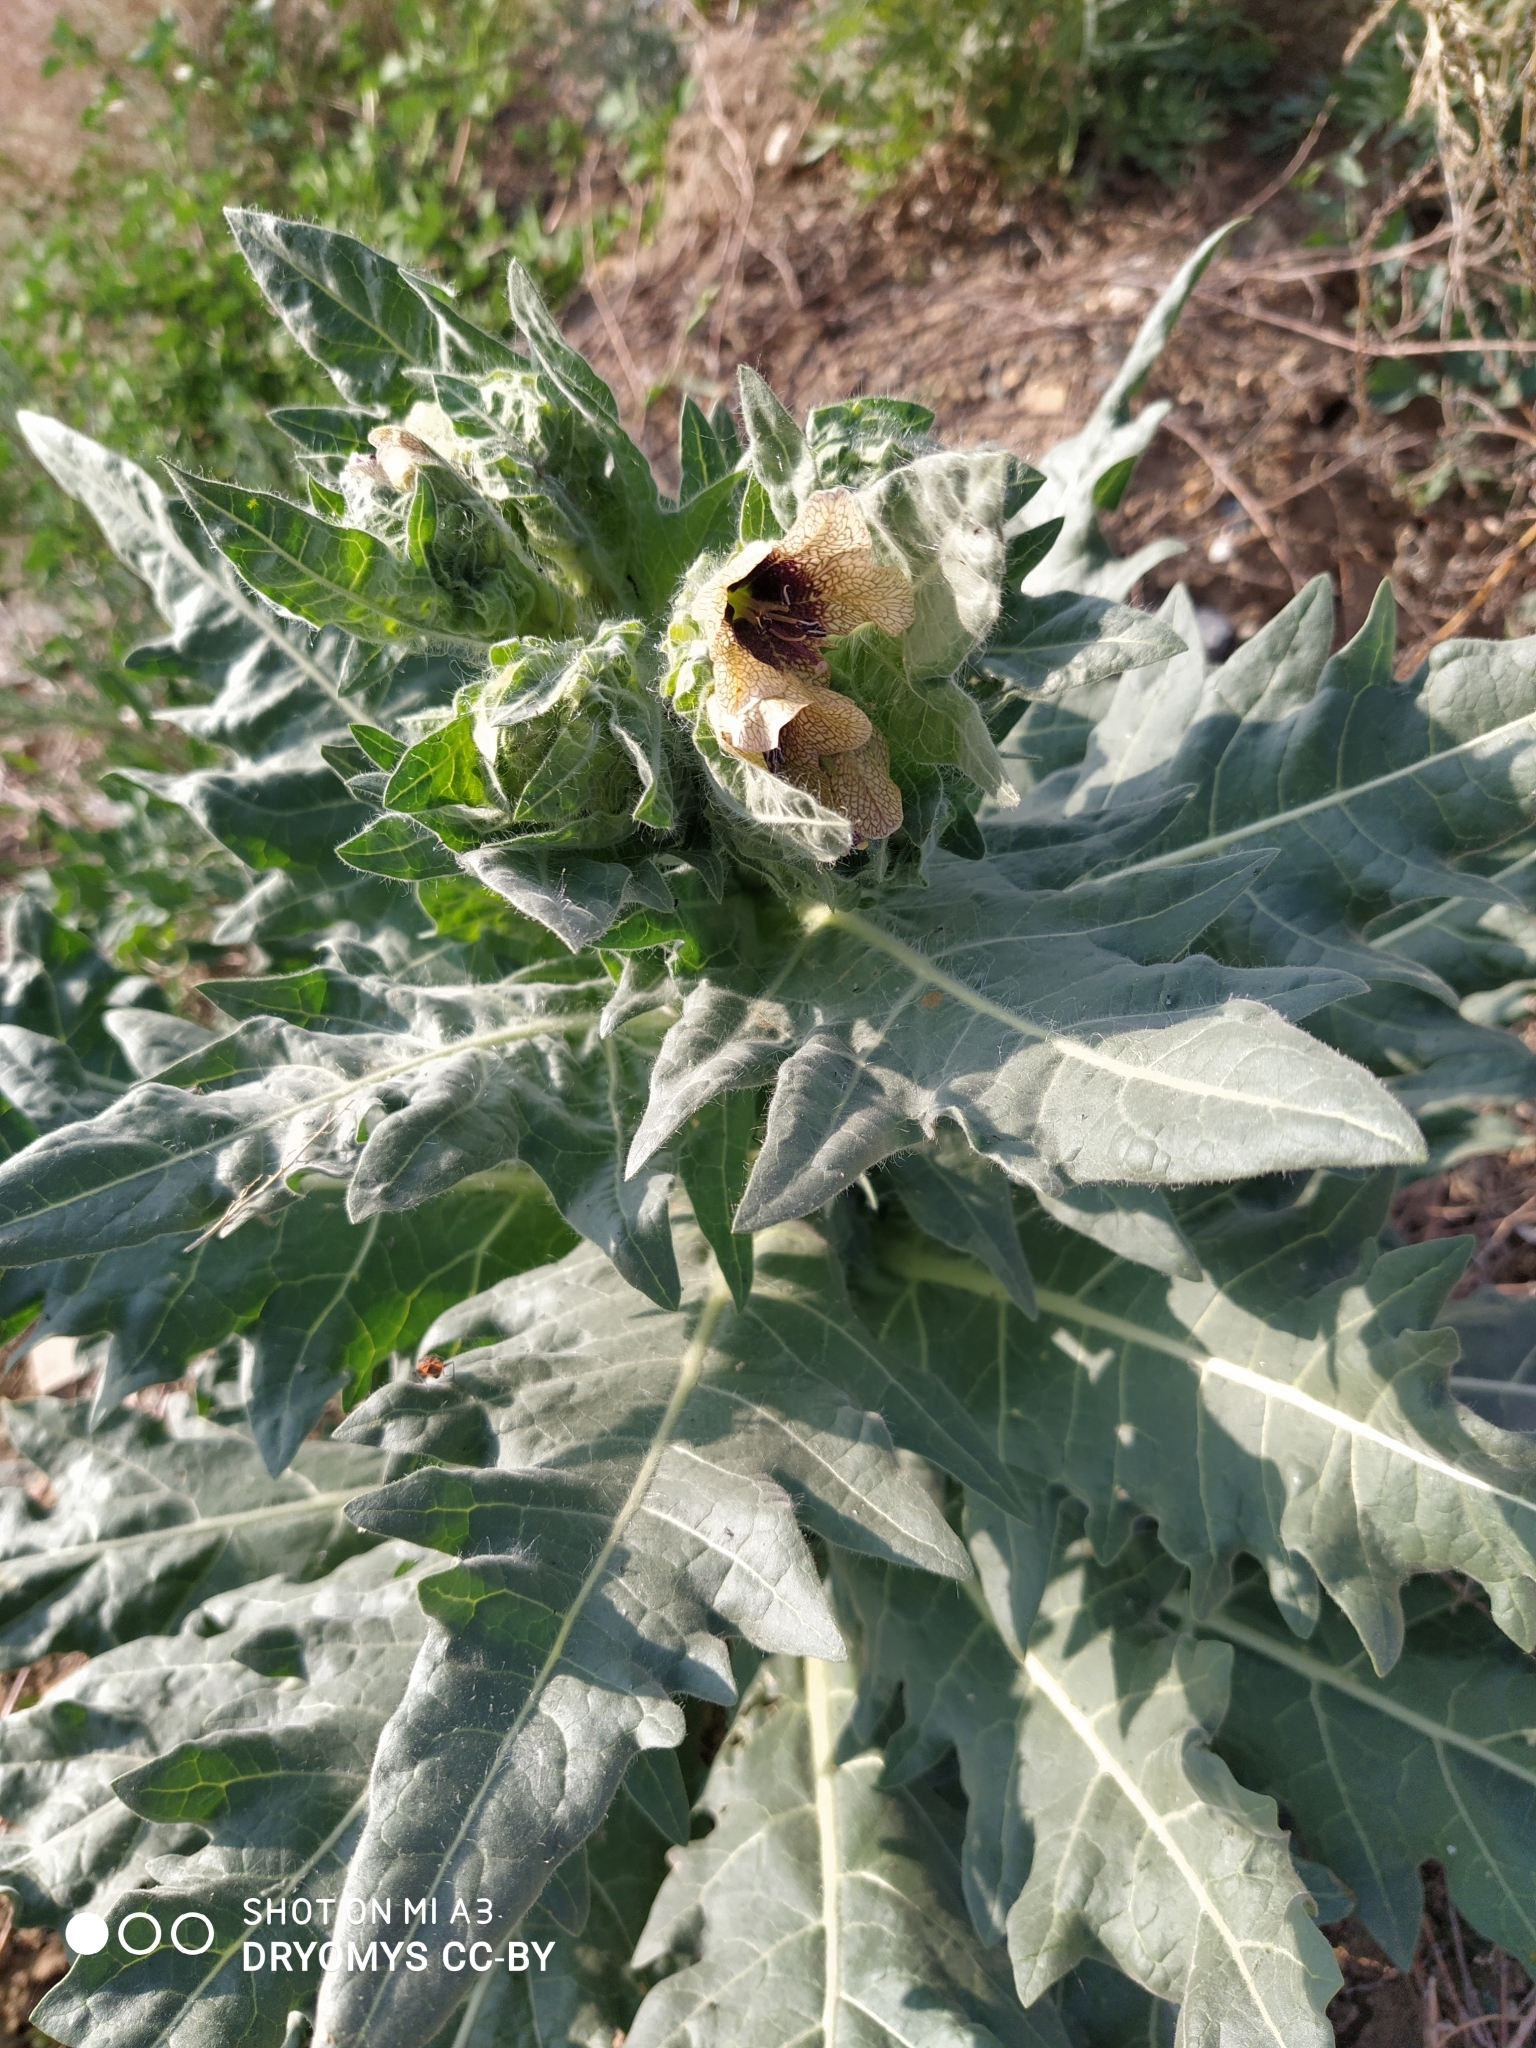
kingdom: Plantae
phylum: Tracheophyta
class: Magnoliopsida
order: Solanales
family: Solanaceae
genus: Hyoscyamus
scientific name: Hyoscyamus niger
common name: Henbane
